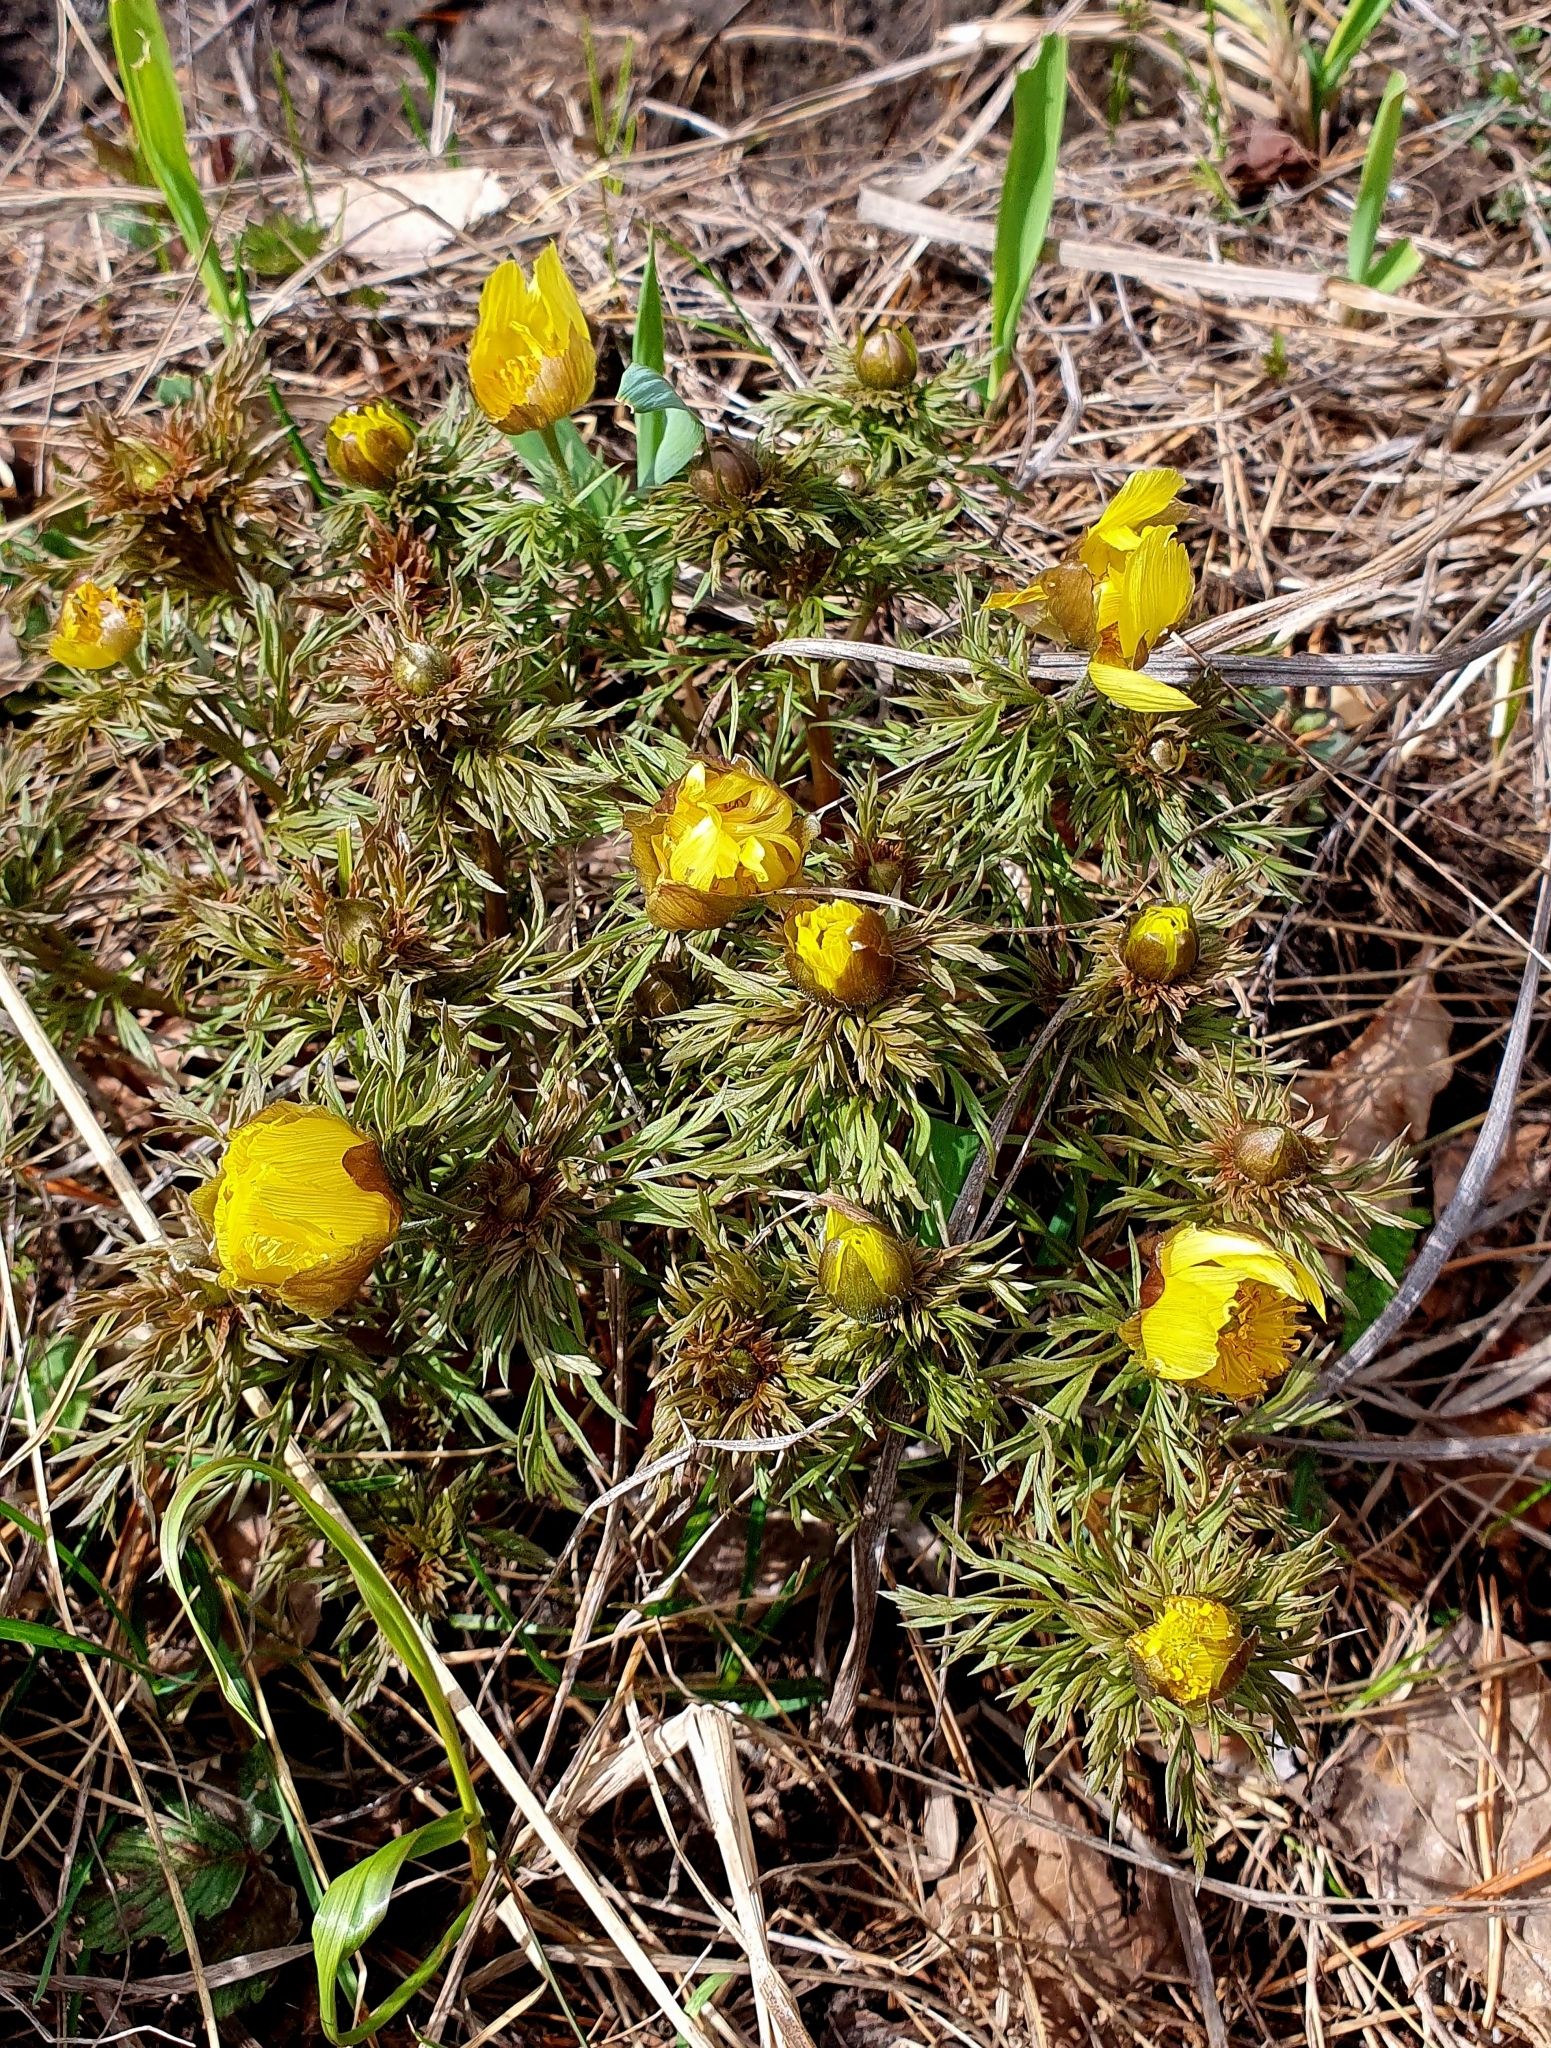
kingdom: Plantae
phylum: Tracheophyta
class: Magnoliopsida
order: Ranunculales
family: Ranunculaceae
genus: Adonis
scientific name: Adonis vernalis
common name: Yellow pheasants-eye
